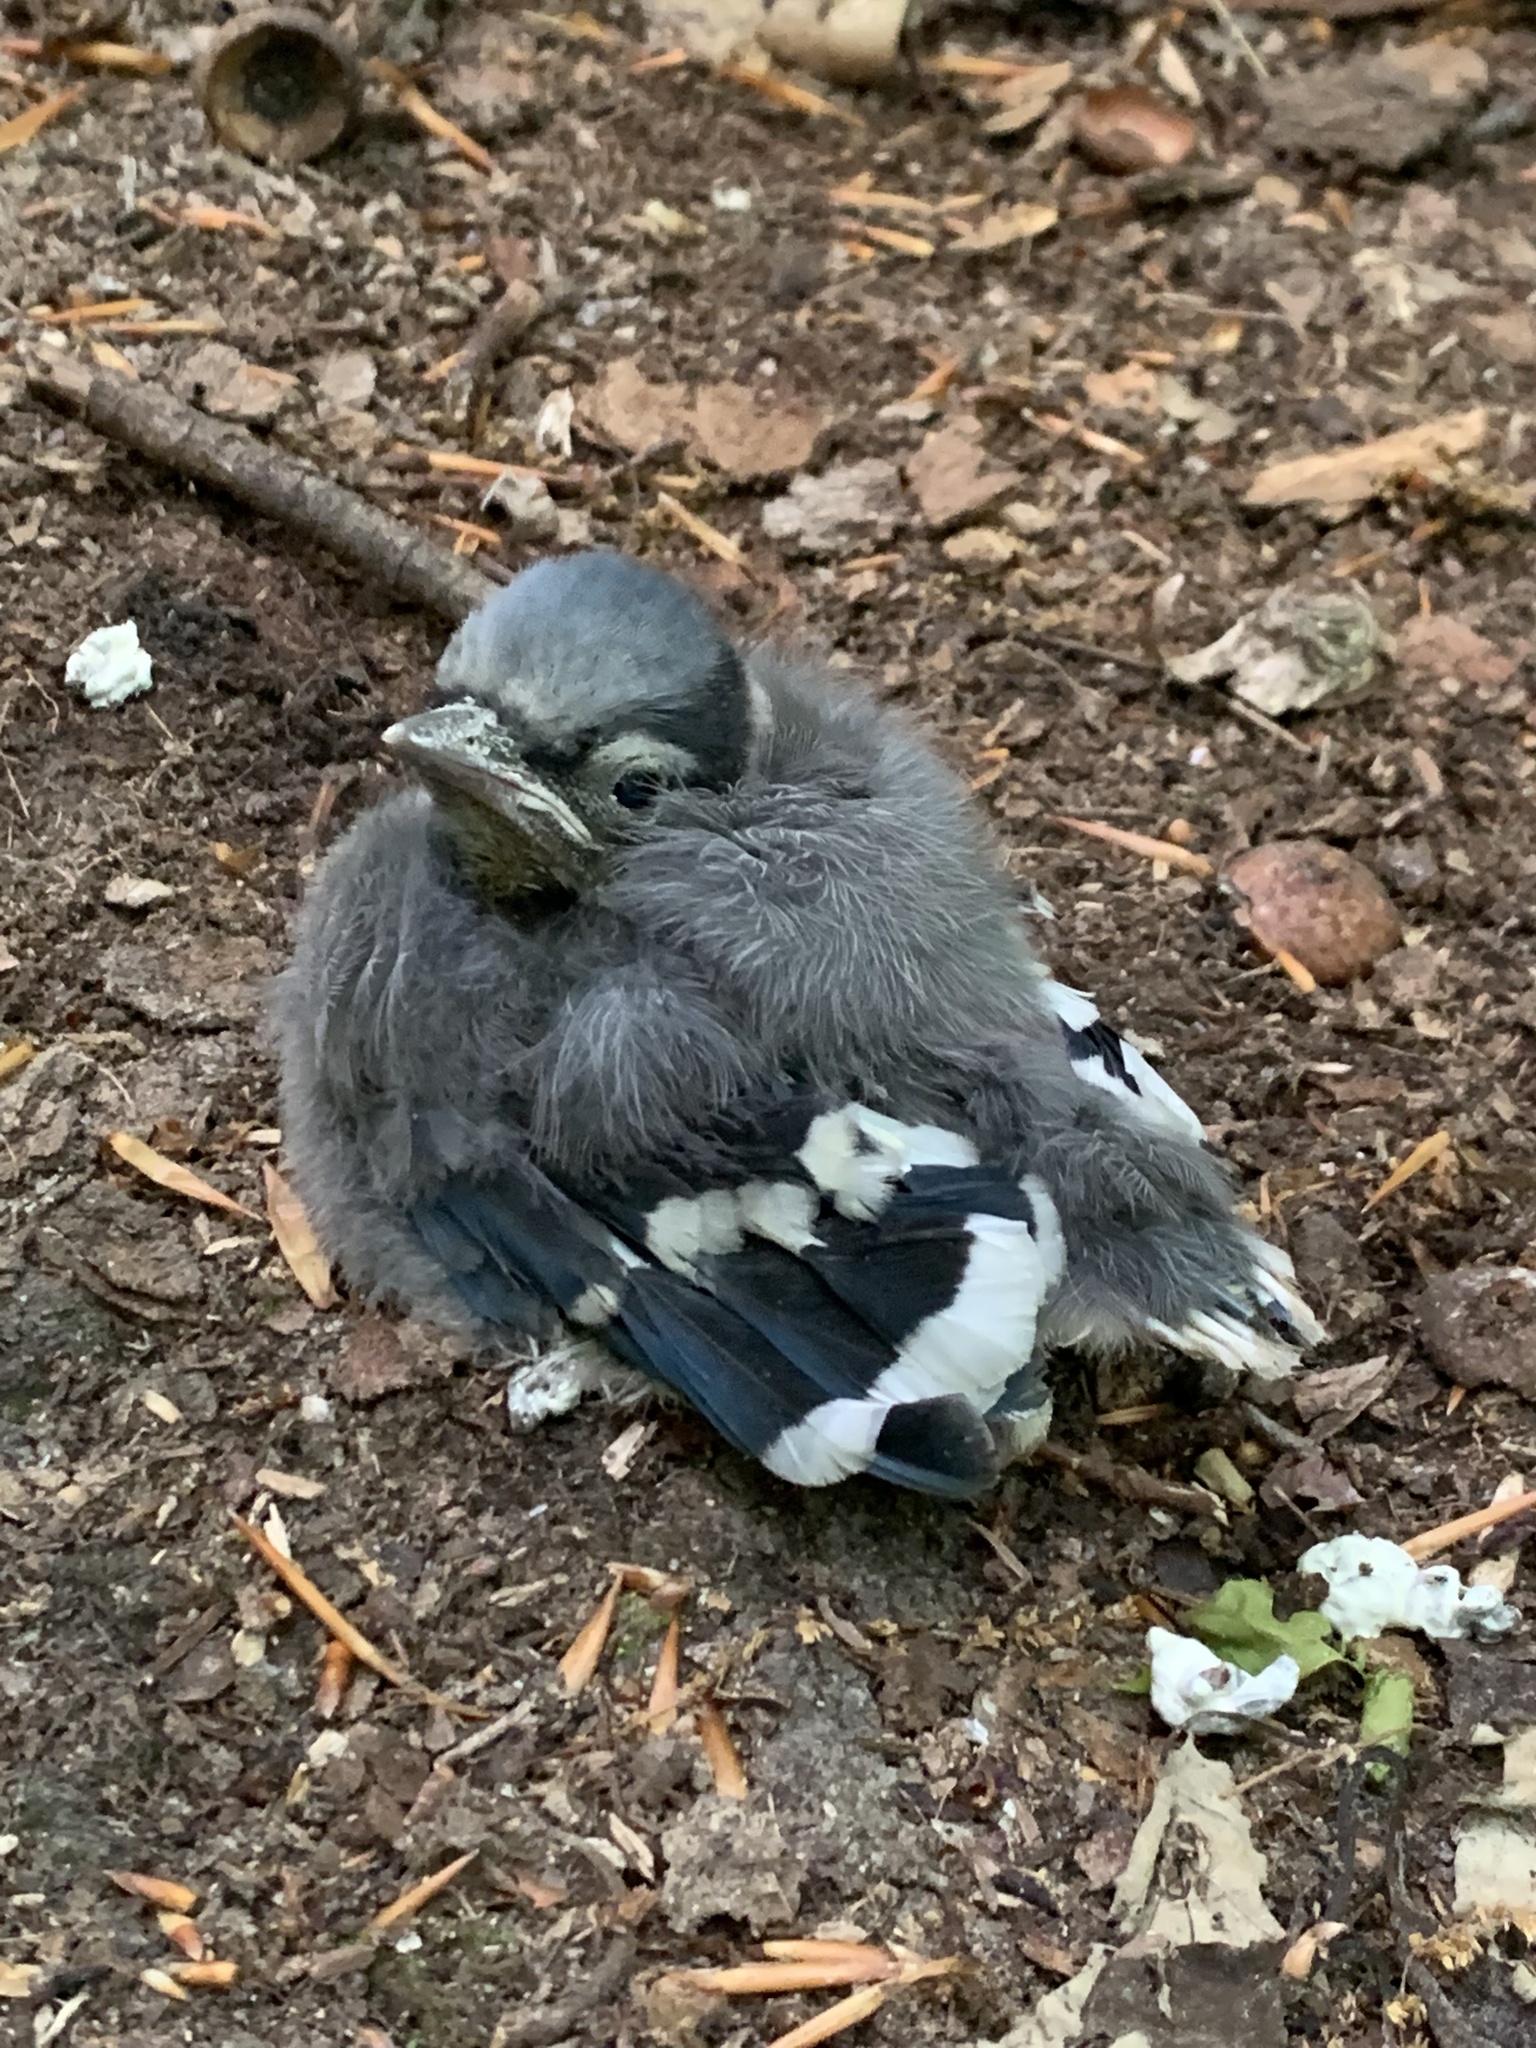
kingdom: Animalia
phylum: Chordata
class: Aves
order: Passeriformes
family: Corvidae
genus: Cyanocitta
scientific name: Cyanocitta cristata
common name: Blue jay
